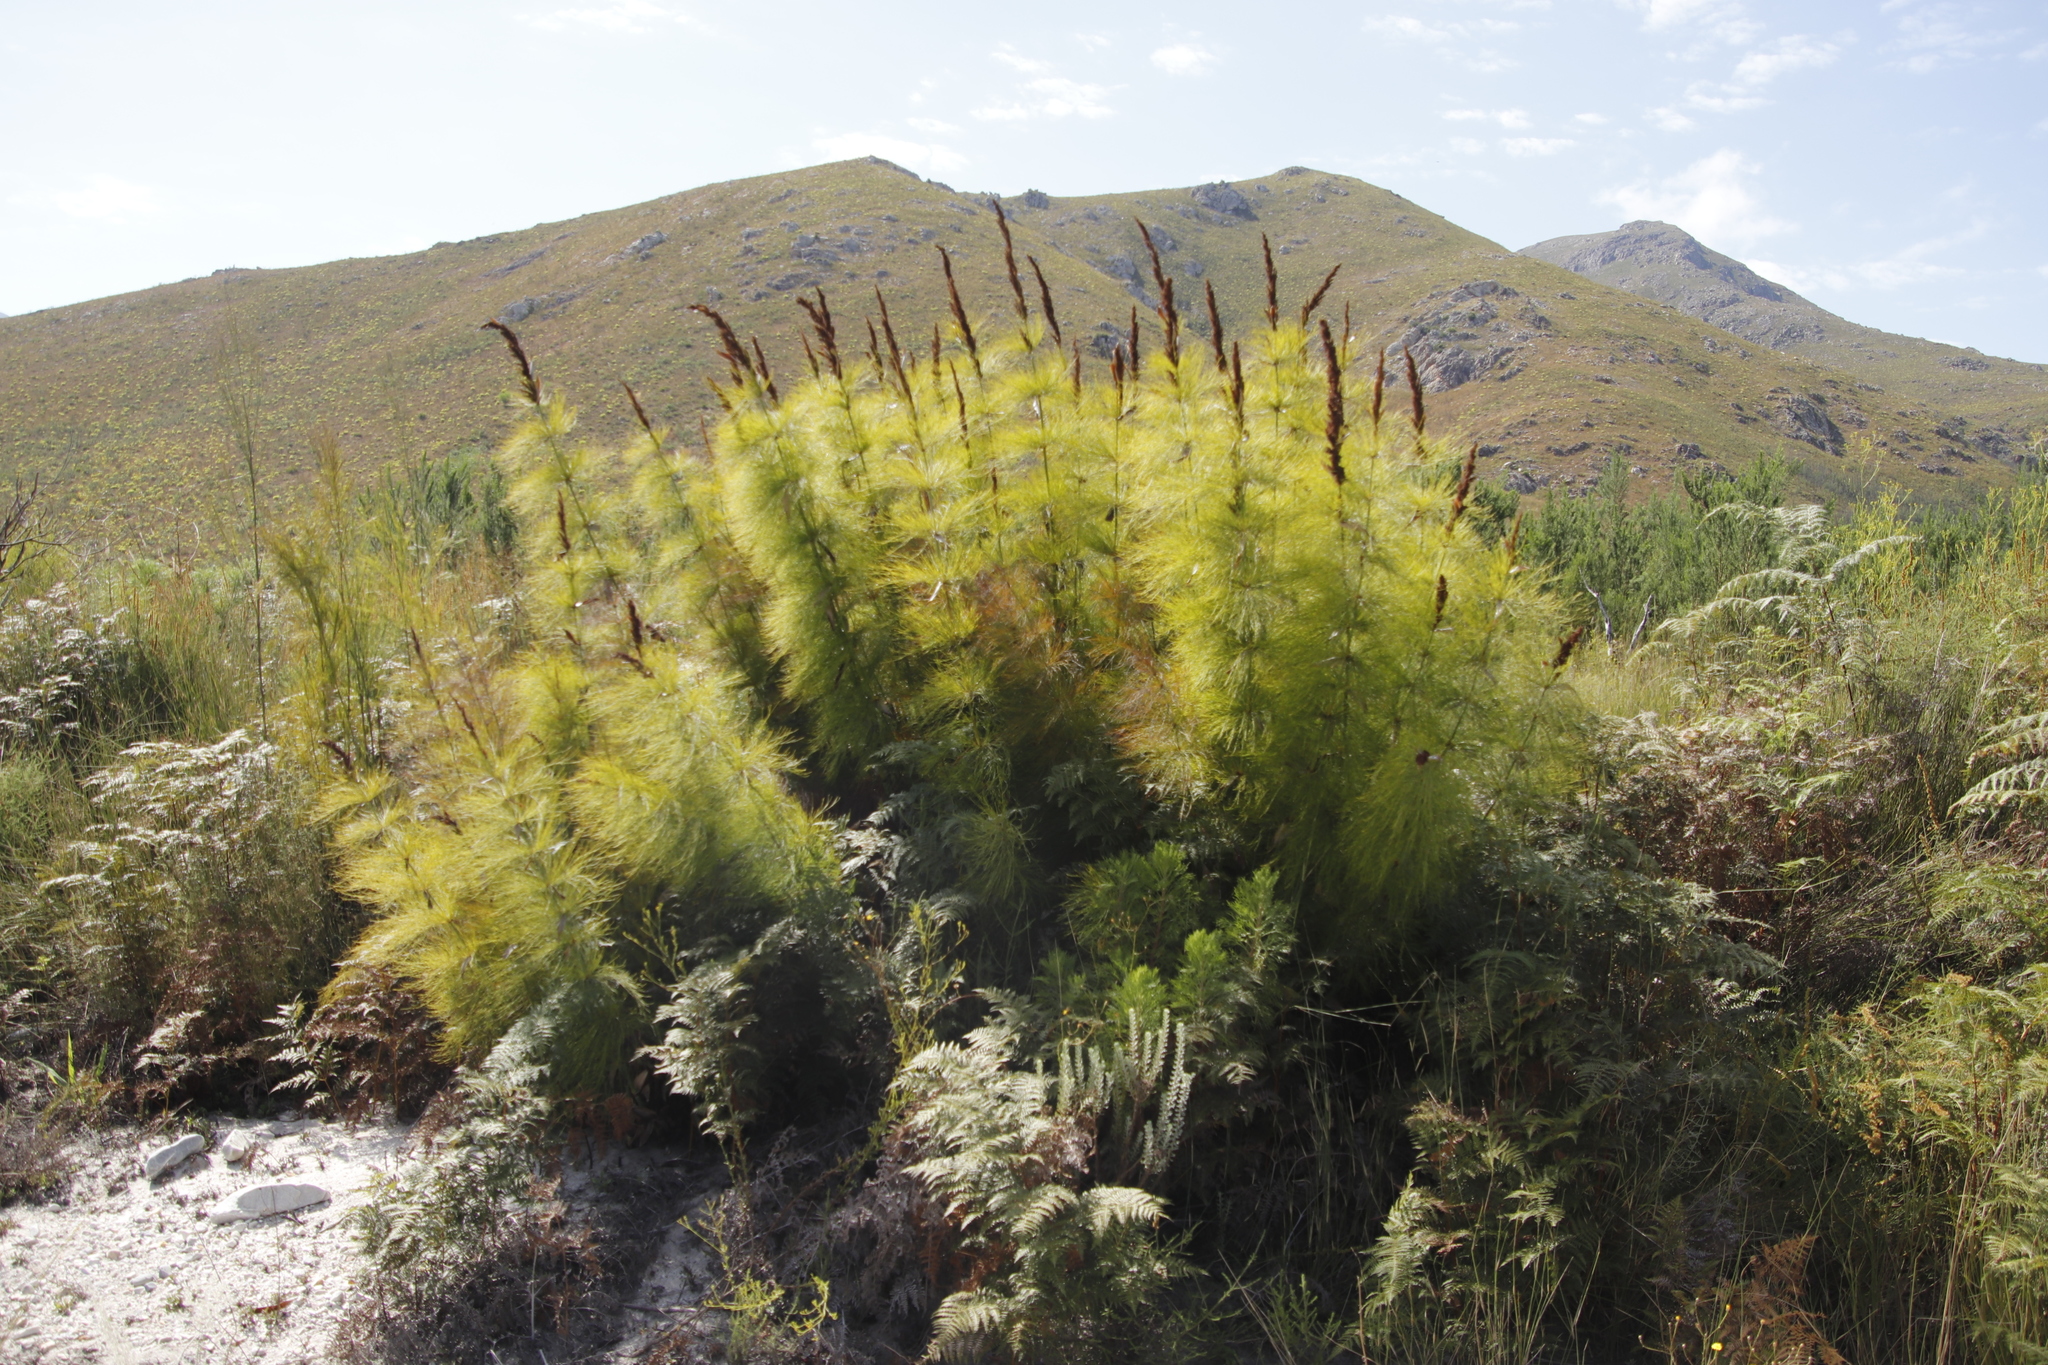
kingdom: Plantae
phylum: Tracheophyta
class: Liliopsida
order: Poales
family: Restionaceae
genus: Elegia
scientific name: Elegia capensis
